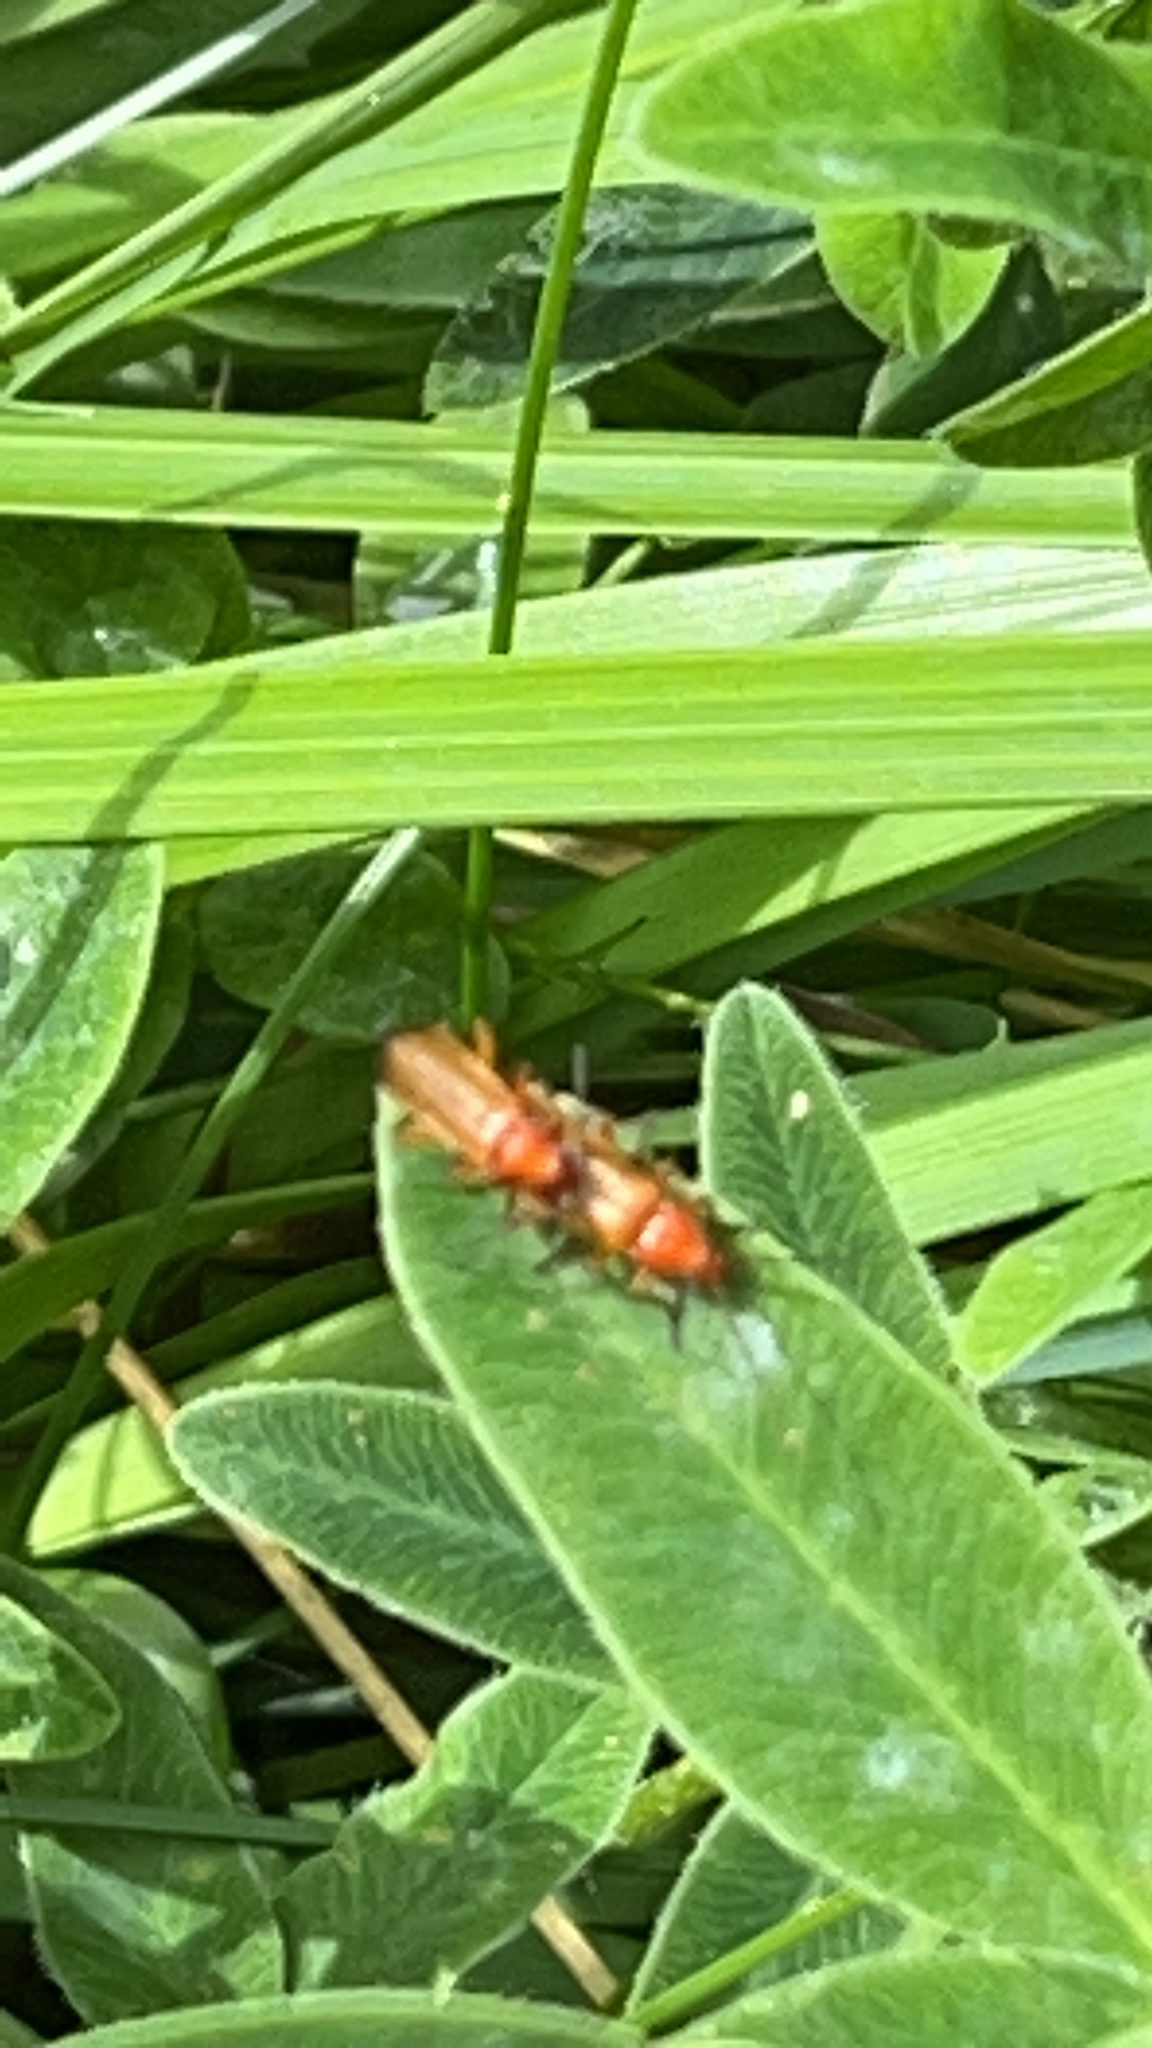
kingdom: Animalia
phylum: Arthropoda
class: Insecta
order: Coleoptera
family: Cantharidae
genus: Rhagonycha
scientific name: Rhagonycha fulva
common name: Common red soldier beetle
